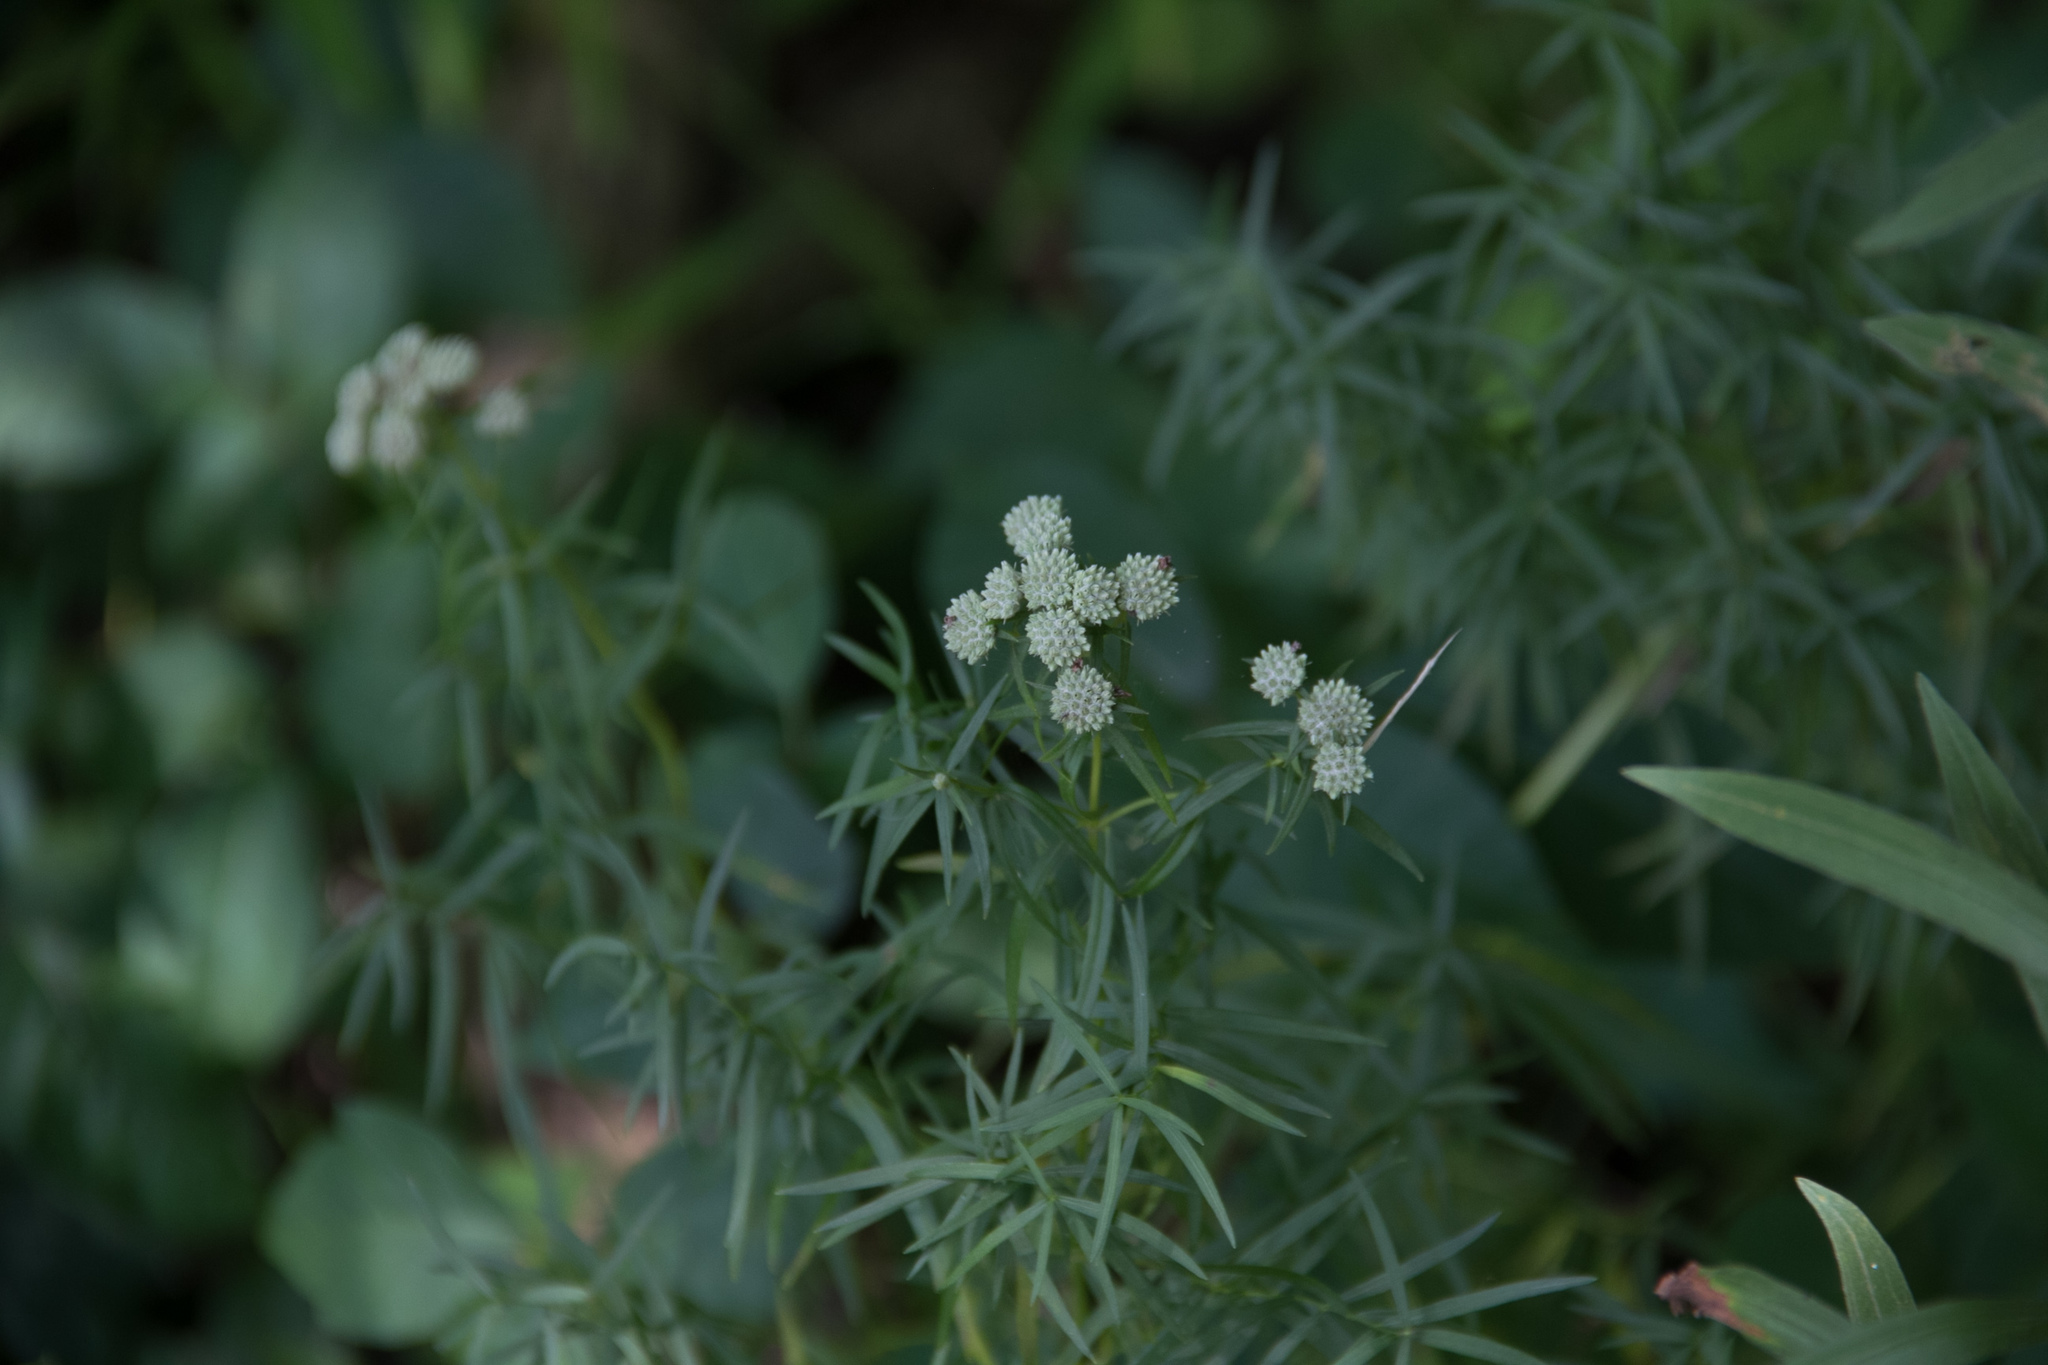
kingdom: Plantae
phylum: Tracheophyta
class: Magnoliopsida
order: Lamiales
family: Lamiaceae
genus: Pycnanthemum
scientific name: Pycnanthemum tenuifolium
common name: Narrow-leaf mountain-mint
